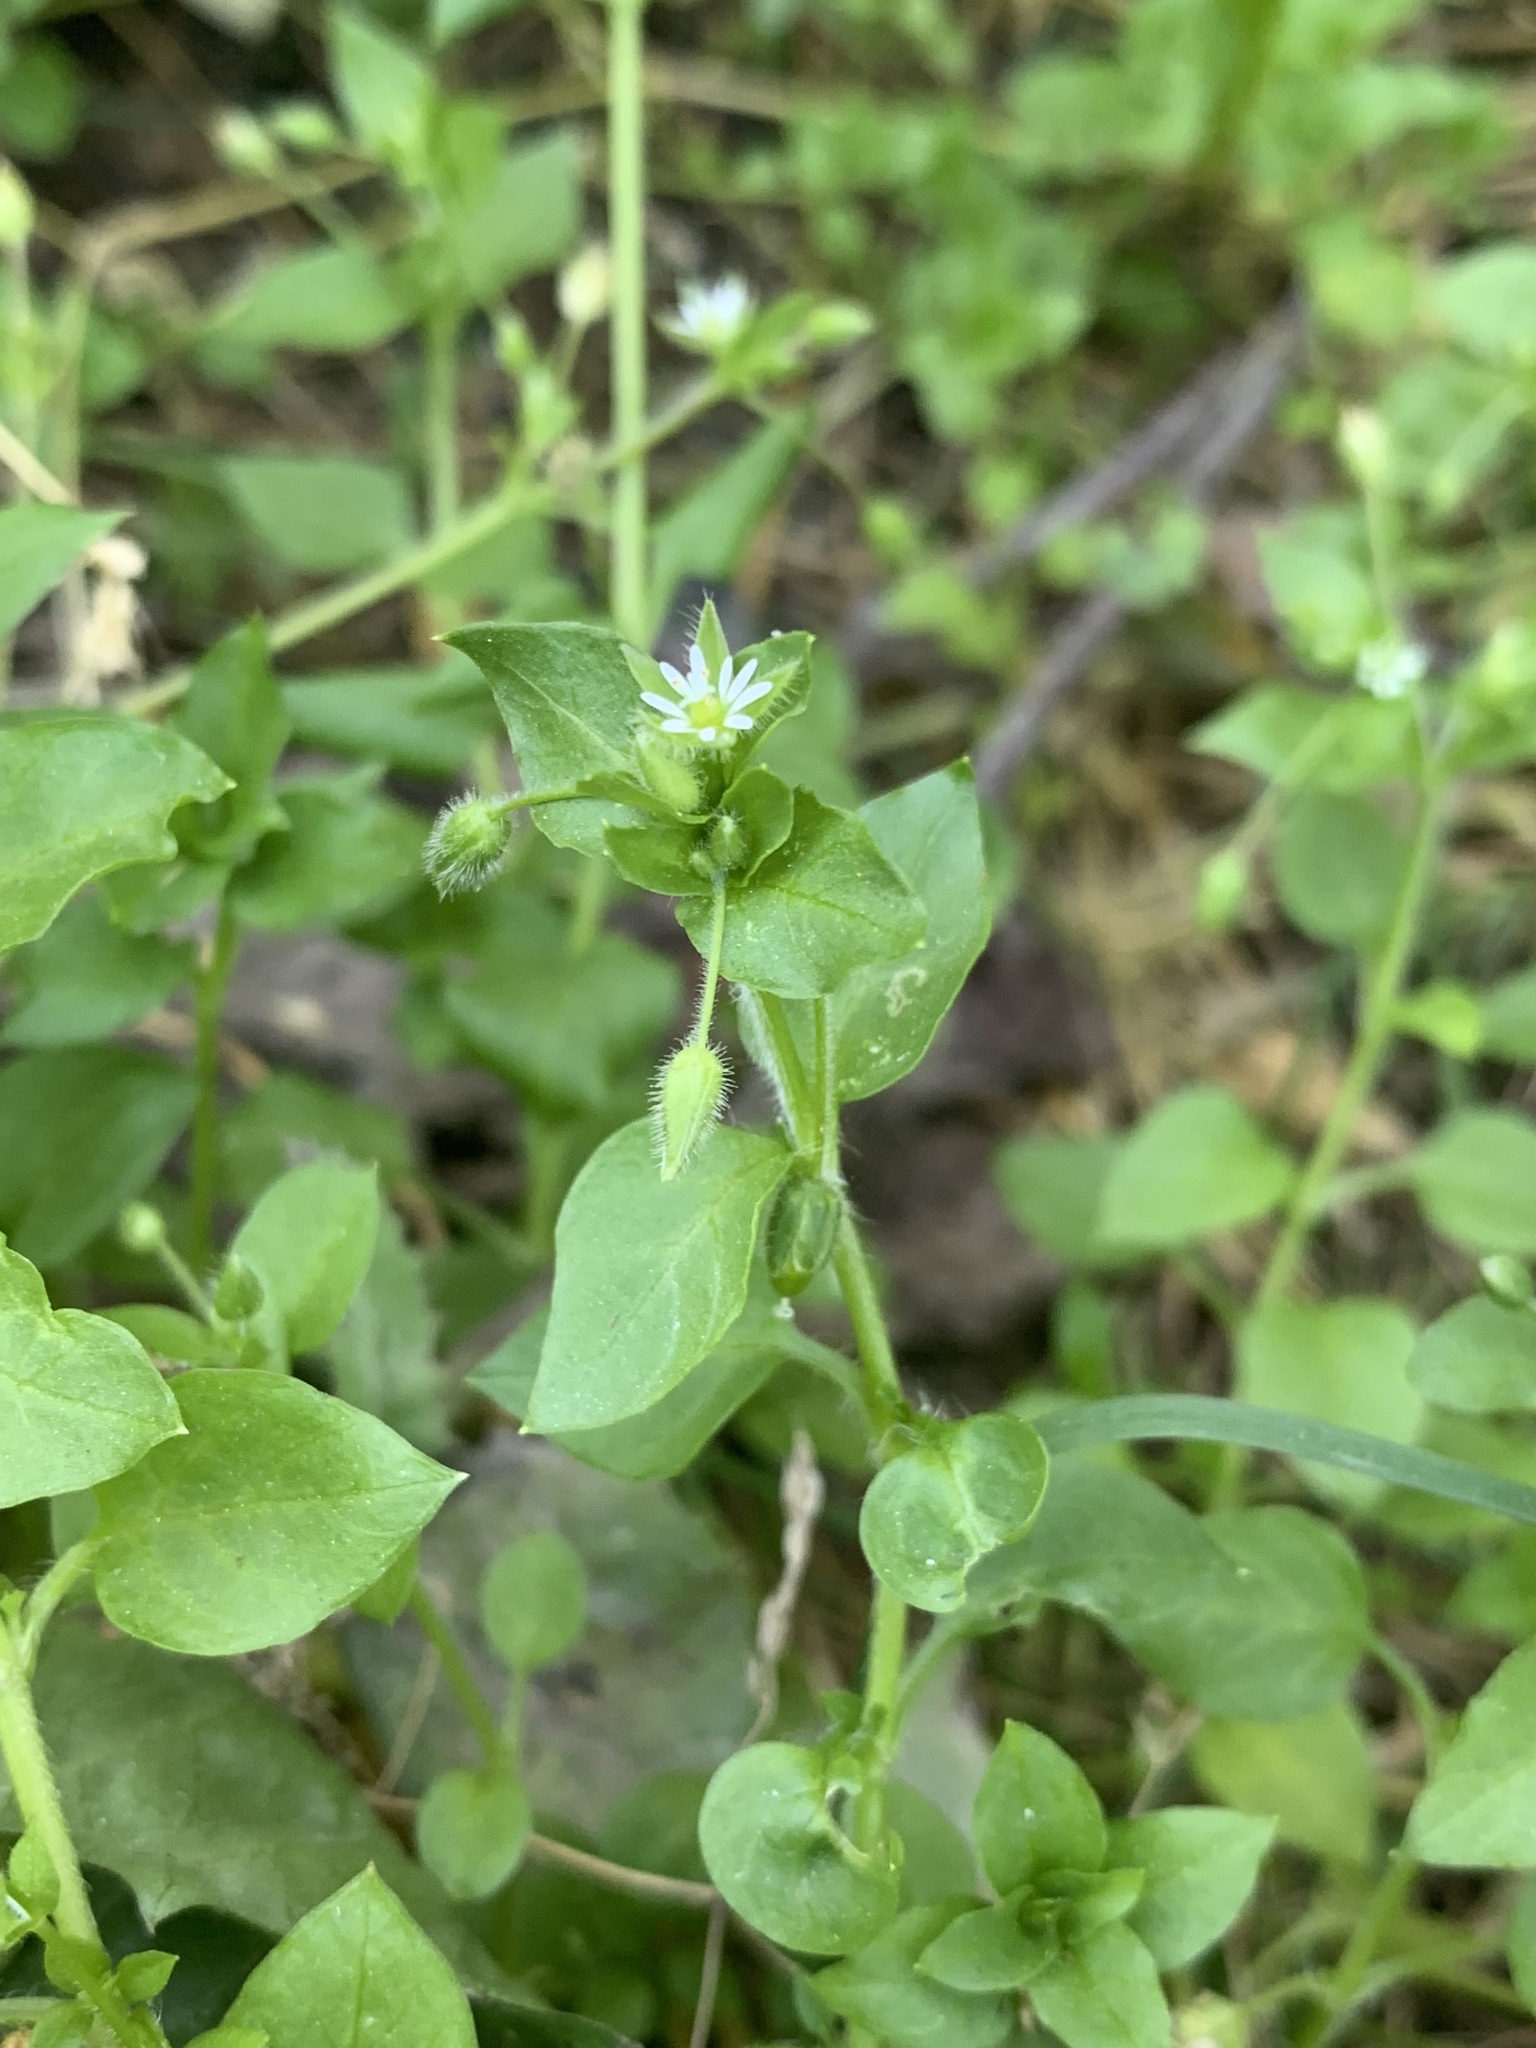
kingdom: Plantae
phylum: Tracheophyta
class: Magnoliopsida
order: Caryophyllales
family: Caryophyllaceae
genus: Stellaria
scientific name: Stellaria media
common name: Common chickweed
